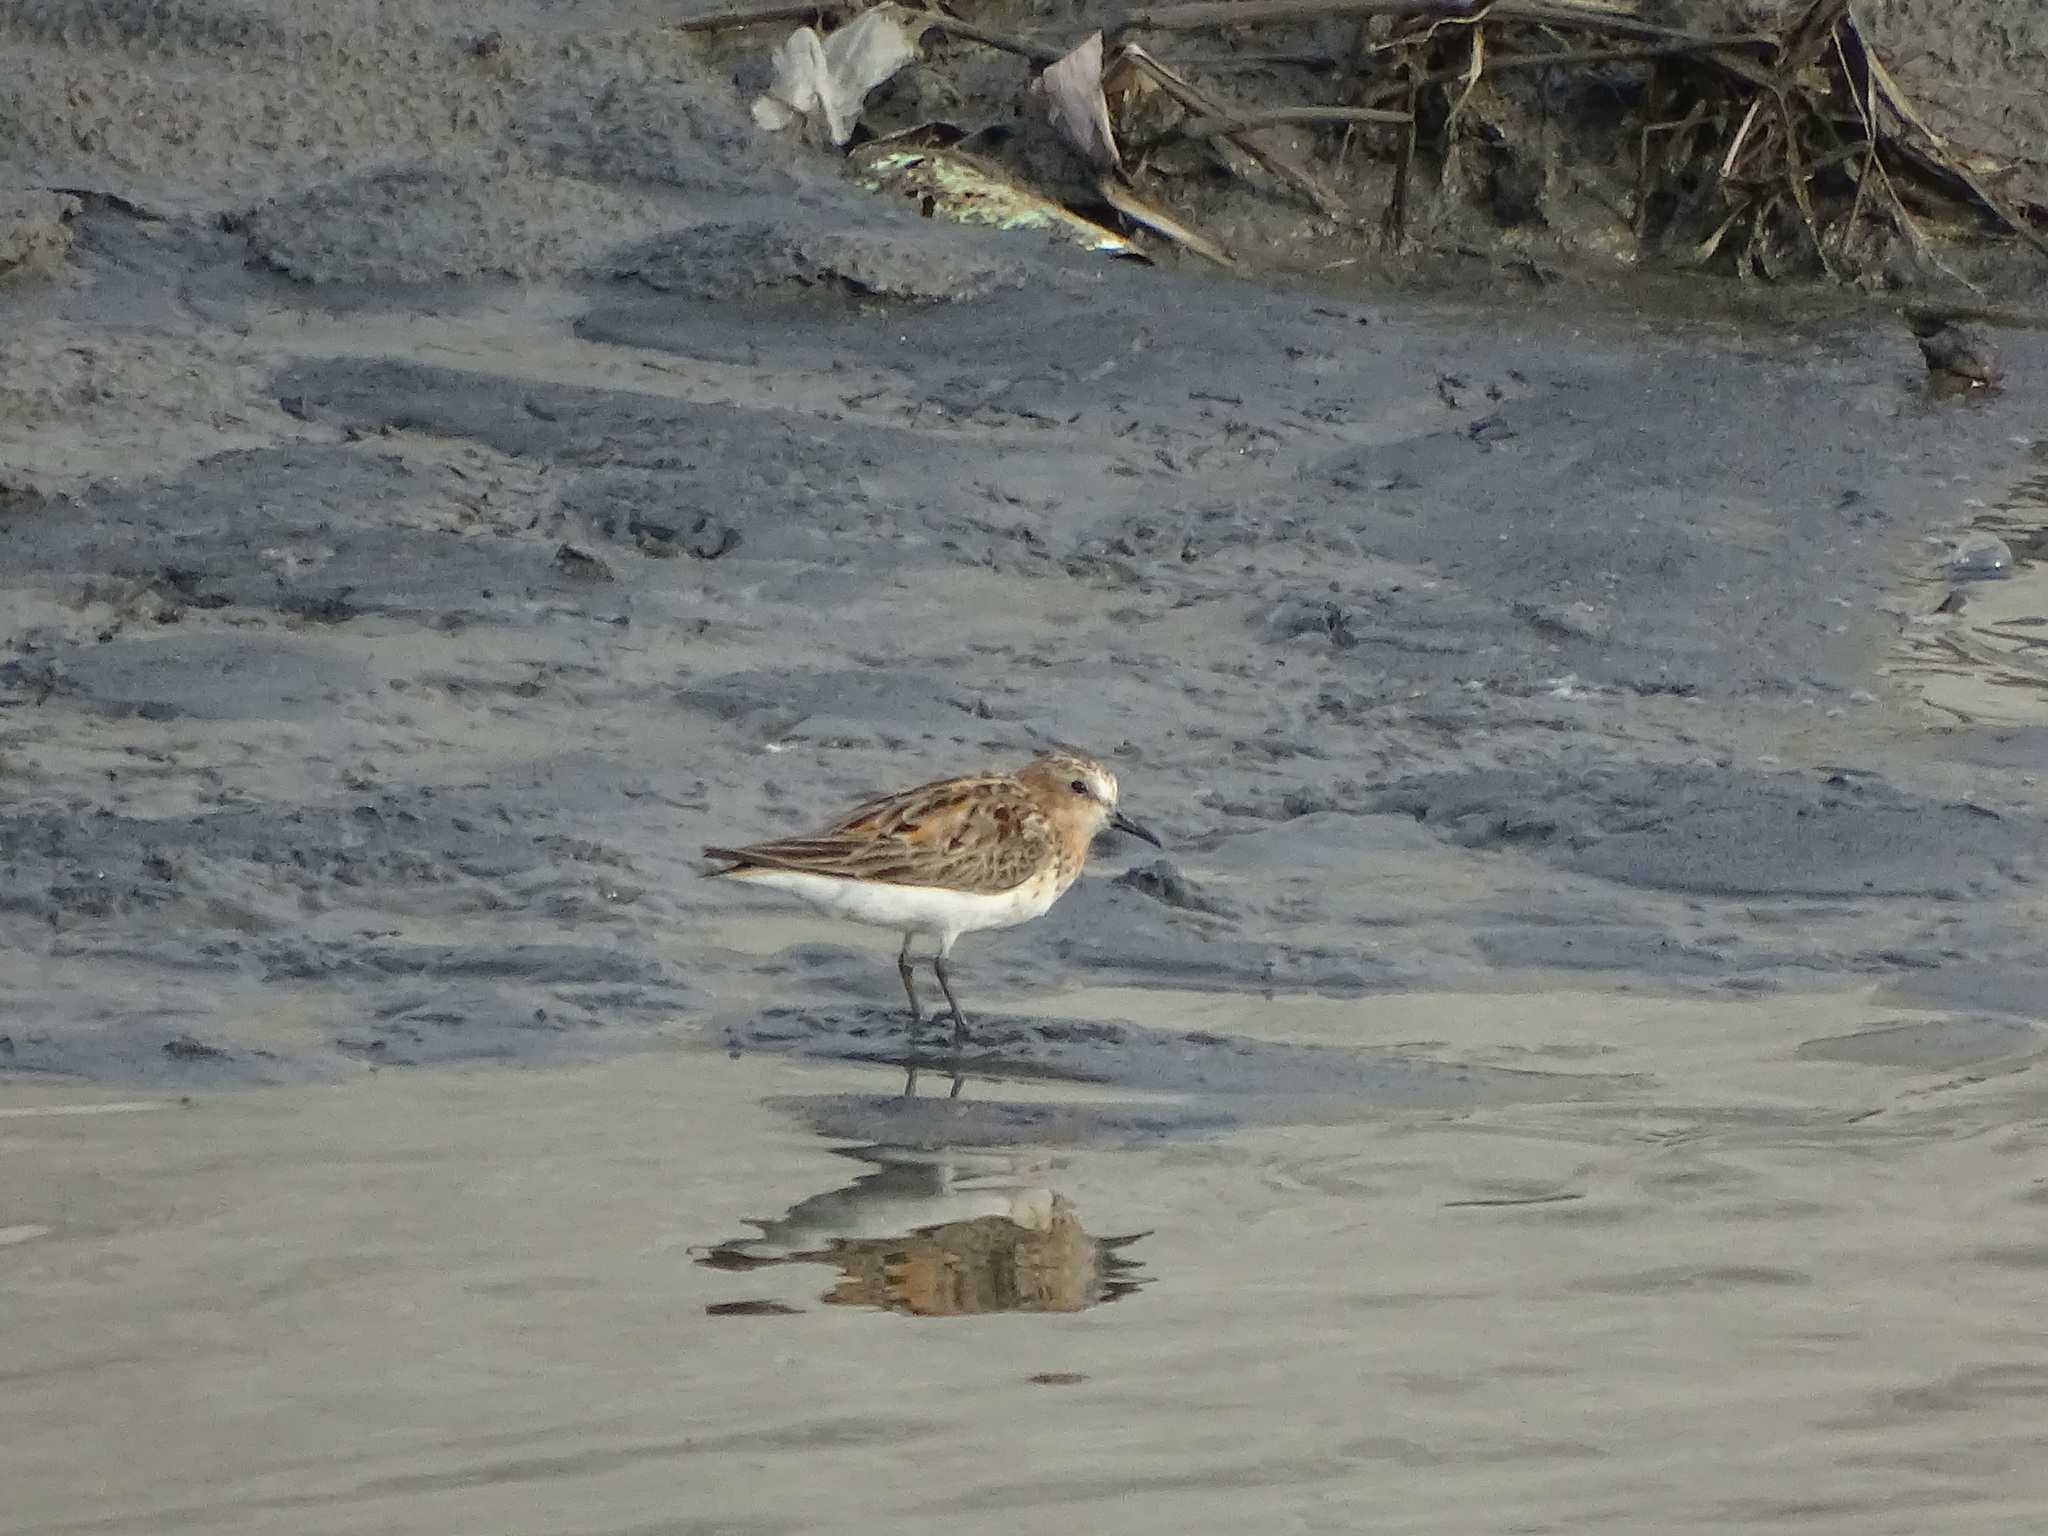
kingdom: Animalia
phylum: Chordata
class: Aves
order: Charadriiformes
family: Scolopacidae
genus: Calidris
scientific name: Calidris ruficollis
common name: Red-necked stint
